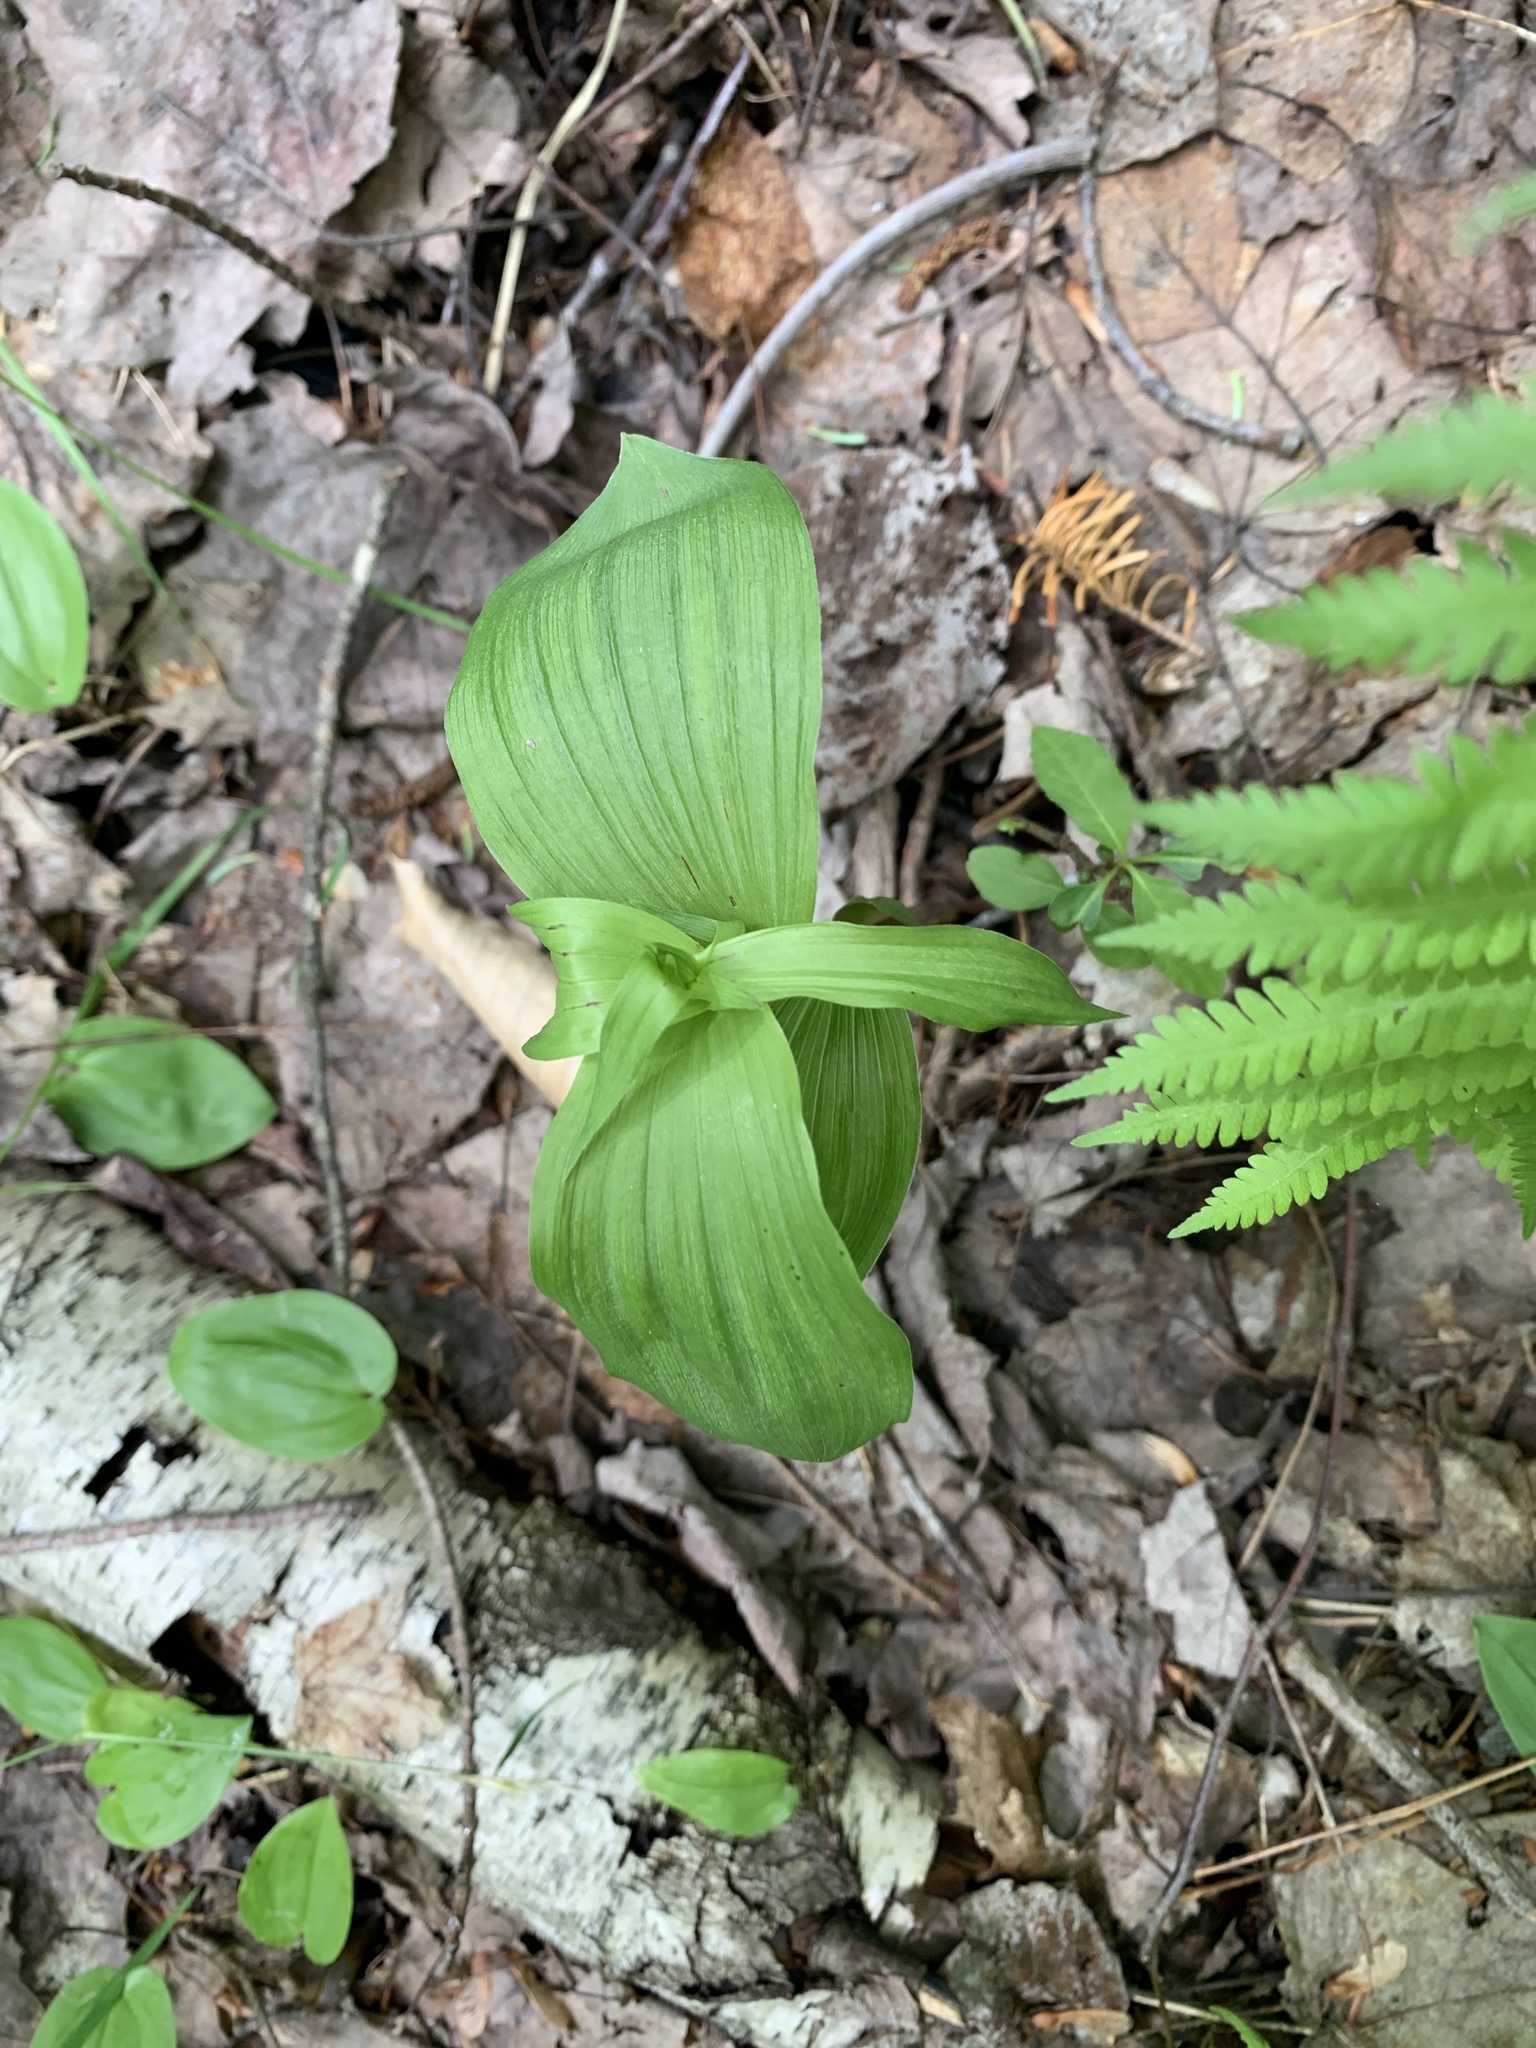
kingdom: Plantae
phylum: Tracheophyta
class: Liliopsida
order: Asparagales
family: Orchidaceae
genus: Epipactis
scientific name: Epipactis helleborine
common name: Broad-leaved helleborine
